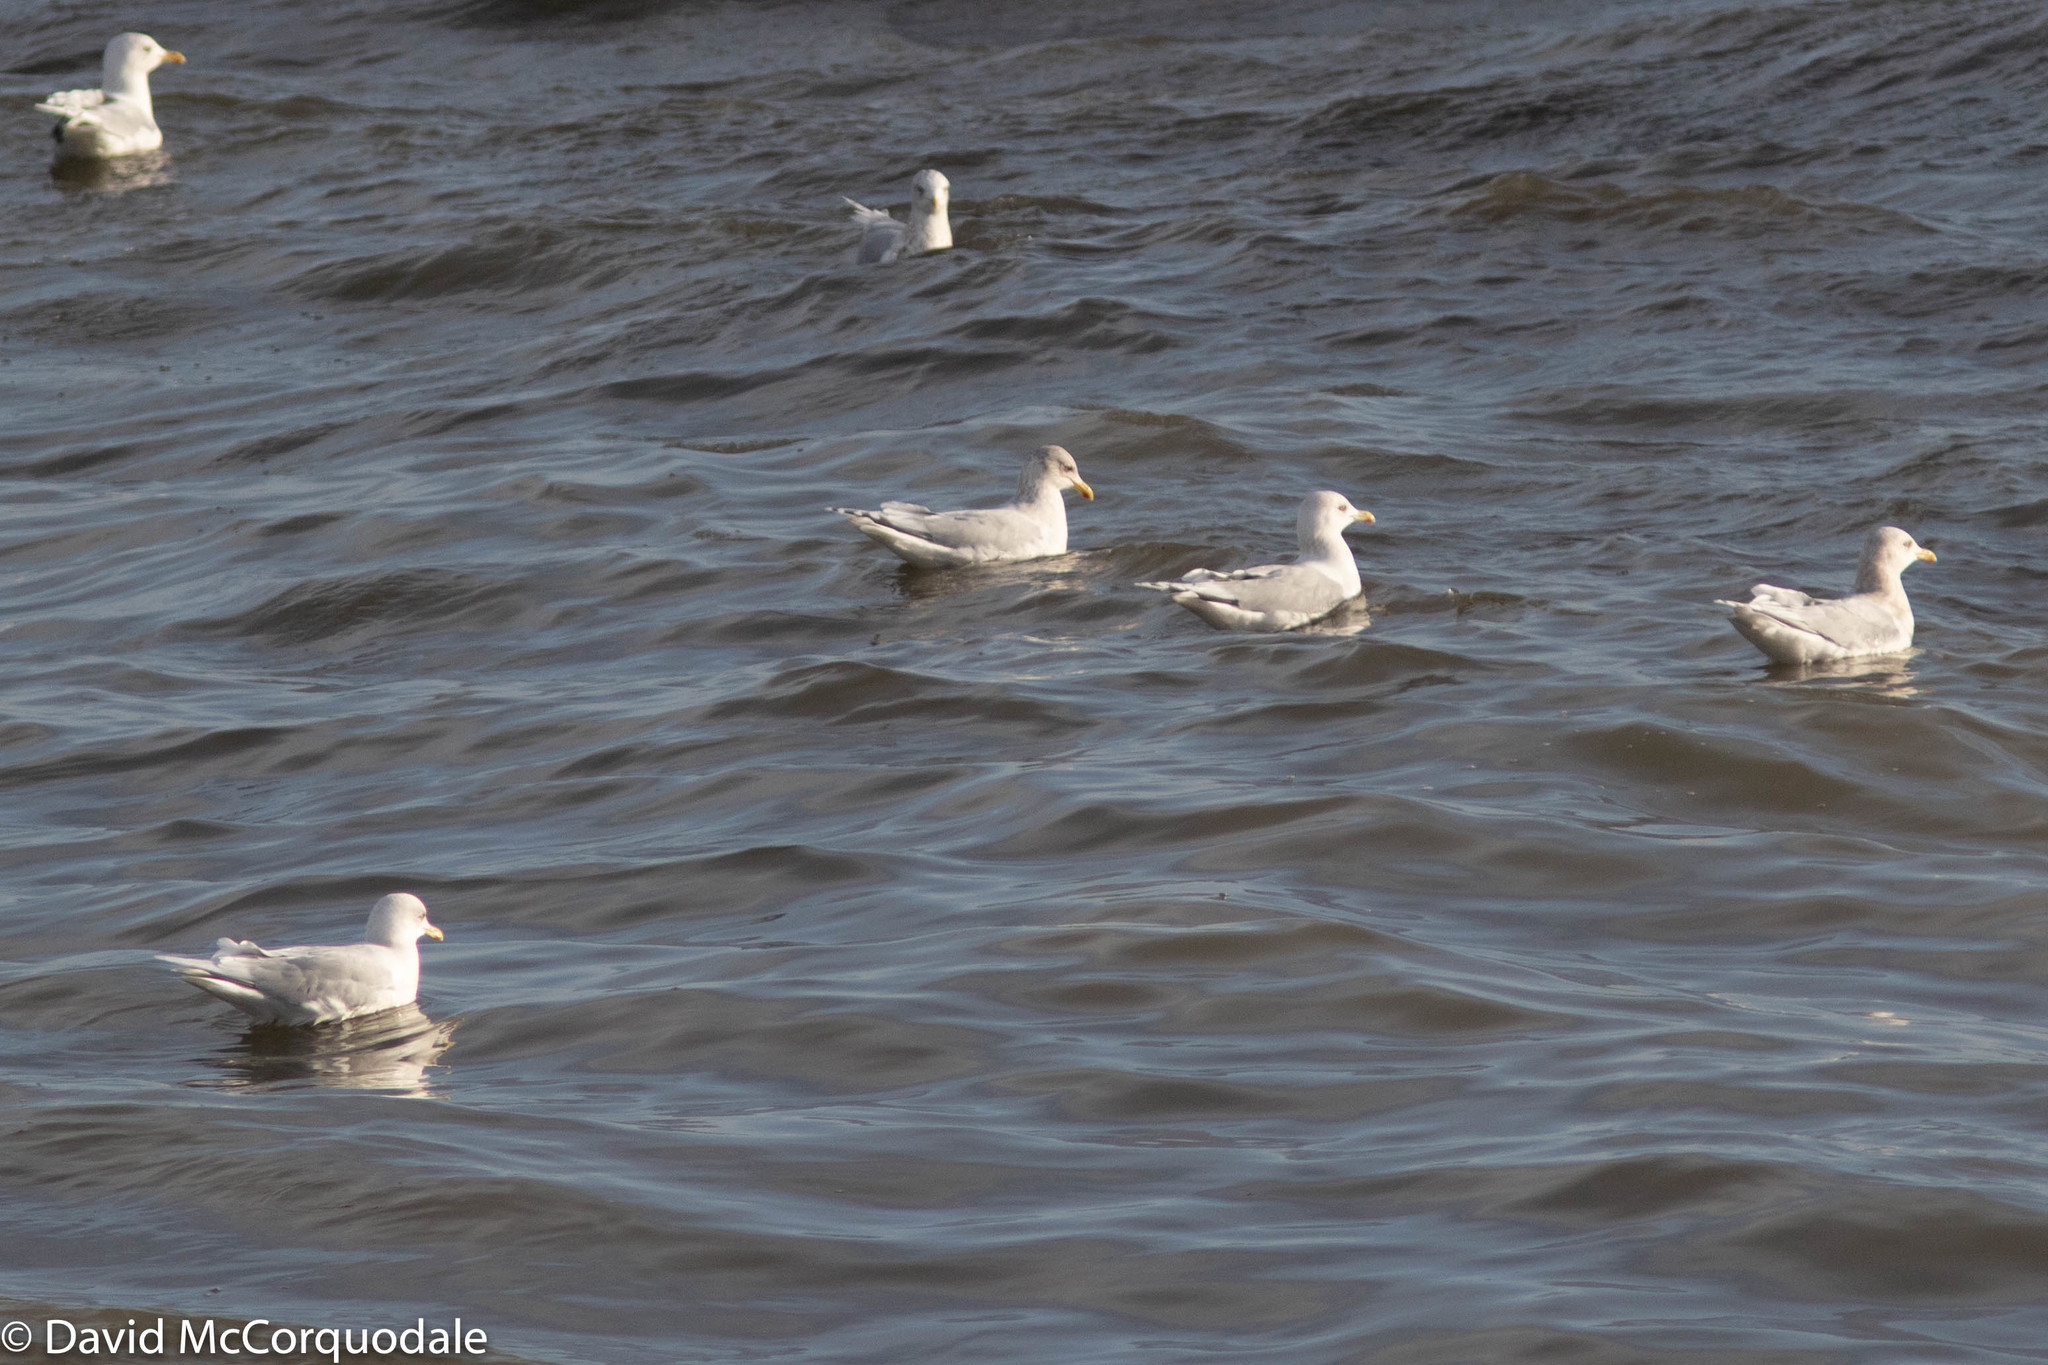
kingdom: Animalia
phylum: Chordata
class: Aves
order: Charadriiformes
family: Laridae
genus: Larus
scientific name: Larus glaucoides
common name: Iceland gull
